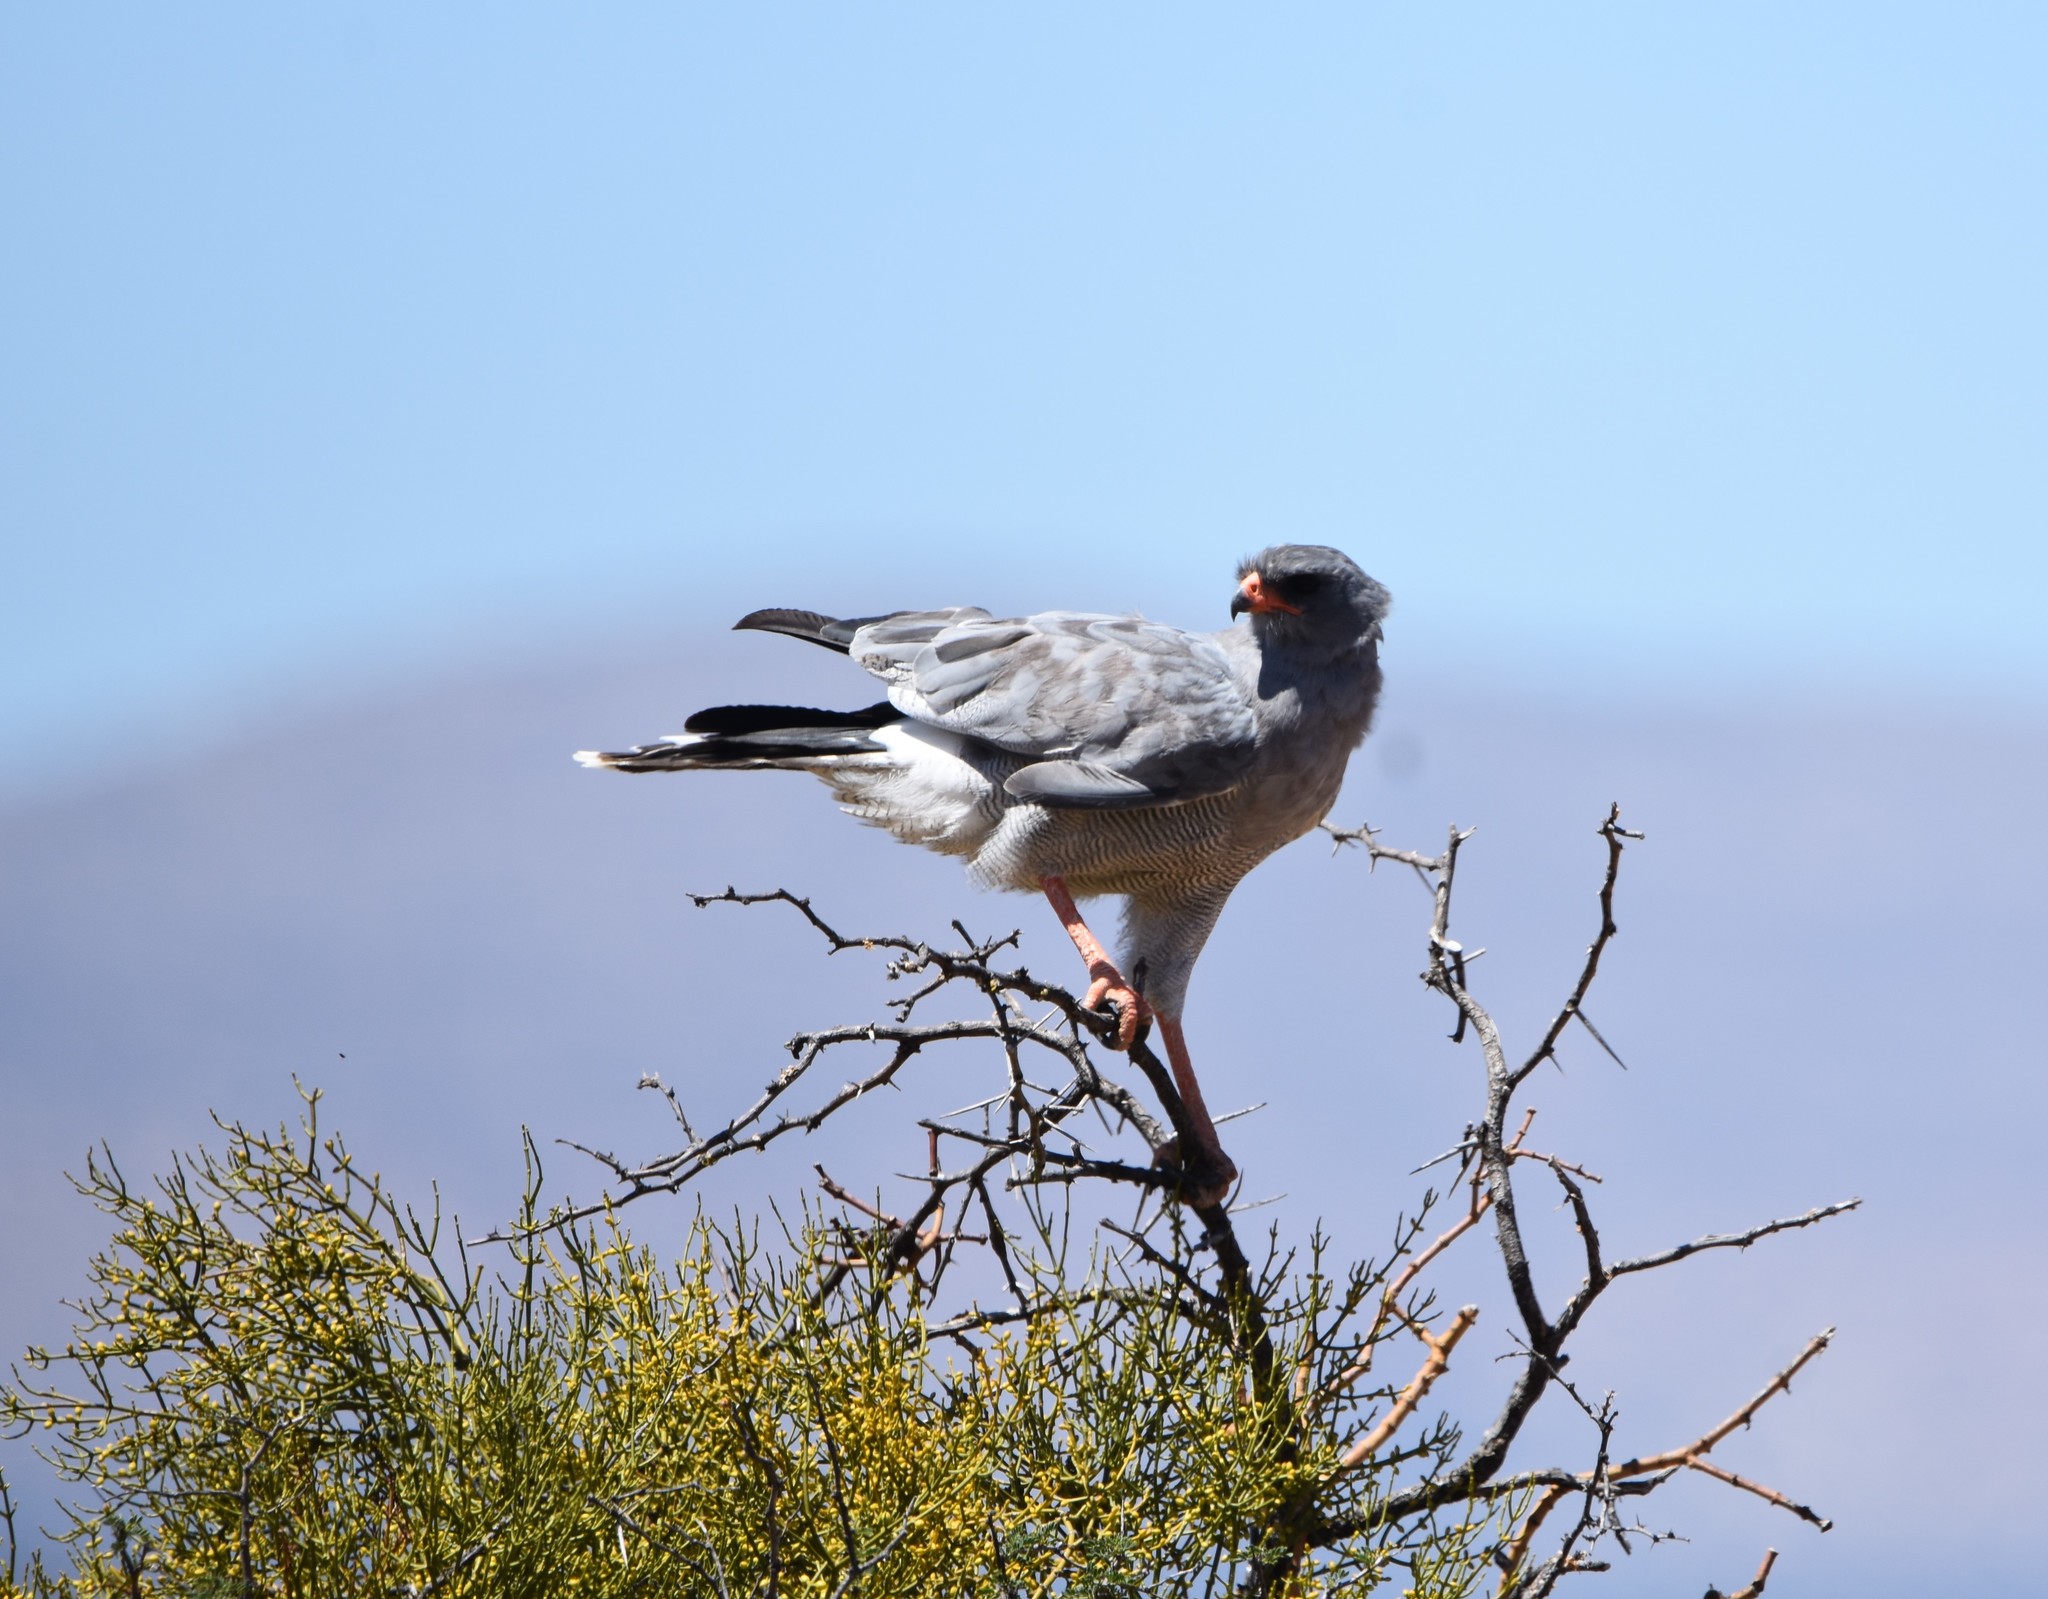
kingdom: Animalia
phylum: Chordata
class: Aves
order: Accipitriformes
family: Accipitridae
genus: Melierax
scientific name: Melierax canorus
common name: Pale chanting-goshawk
